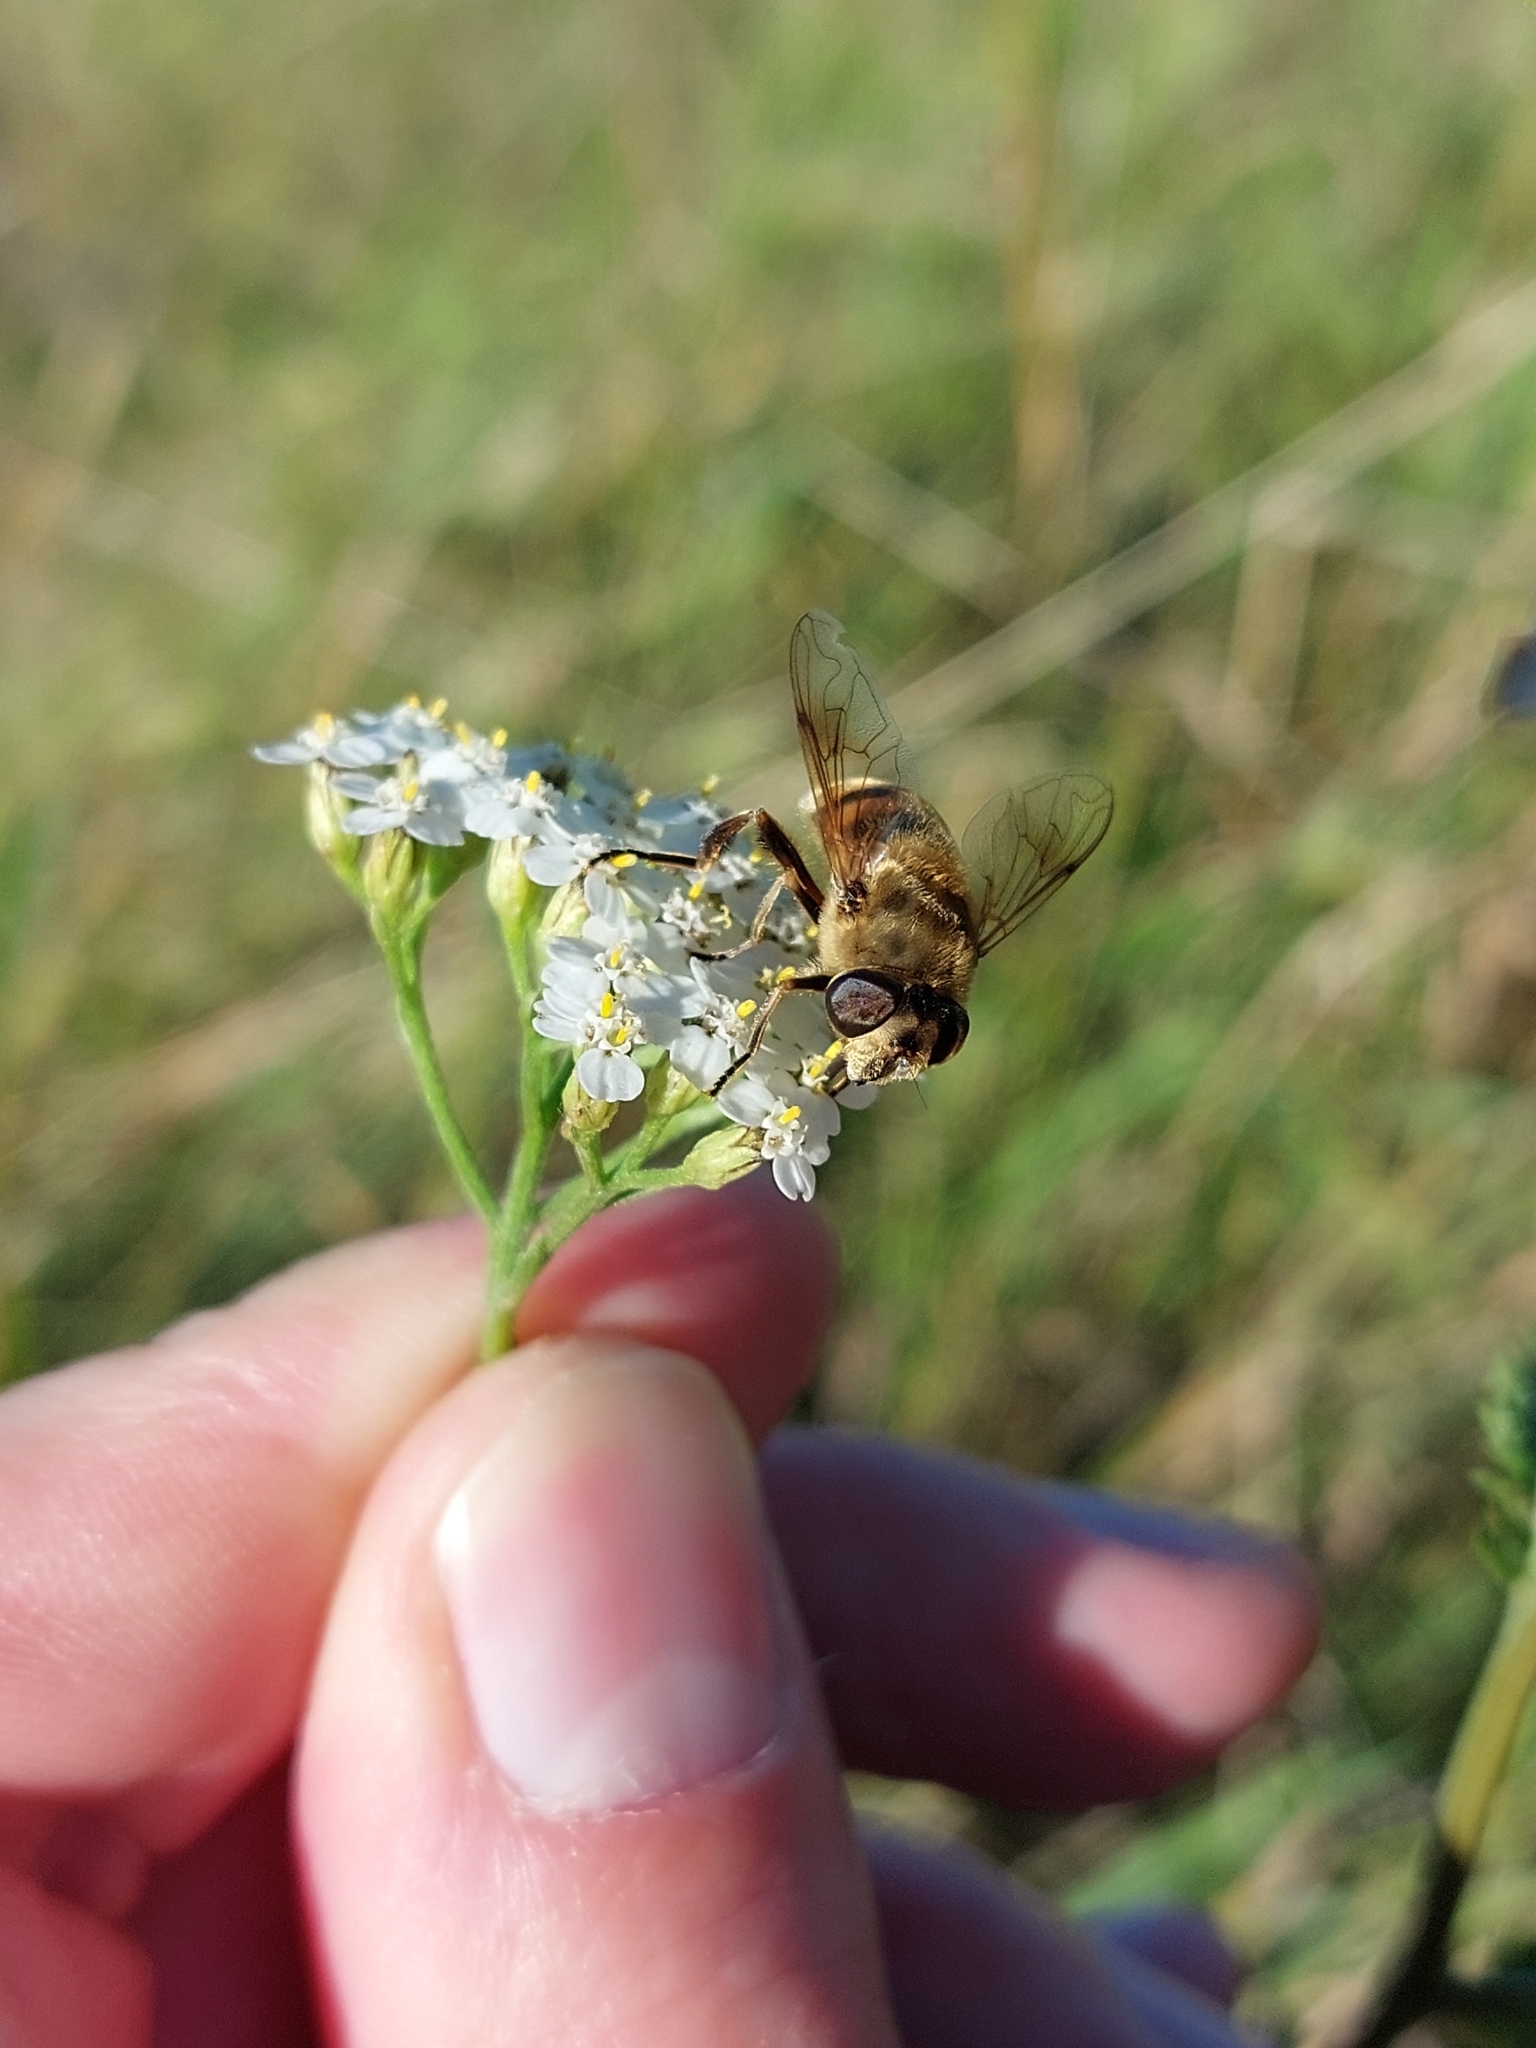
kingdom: Animalia
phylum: Arthropoda
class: Insecta
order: Diptera
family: Syrphidae
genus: Eristalis
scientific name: Eristalis tenax
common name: Drone fly
